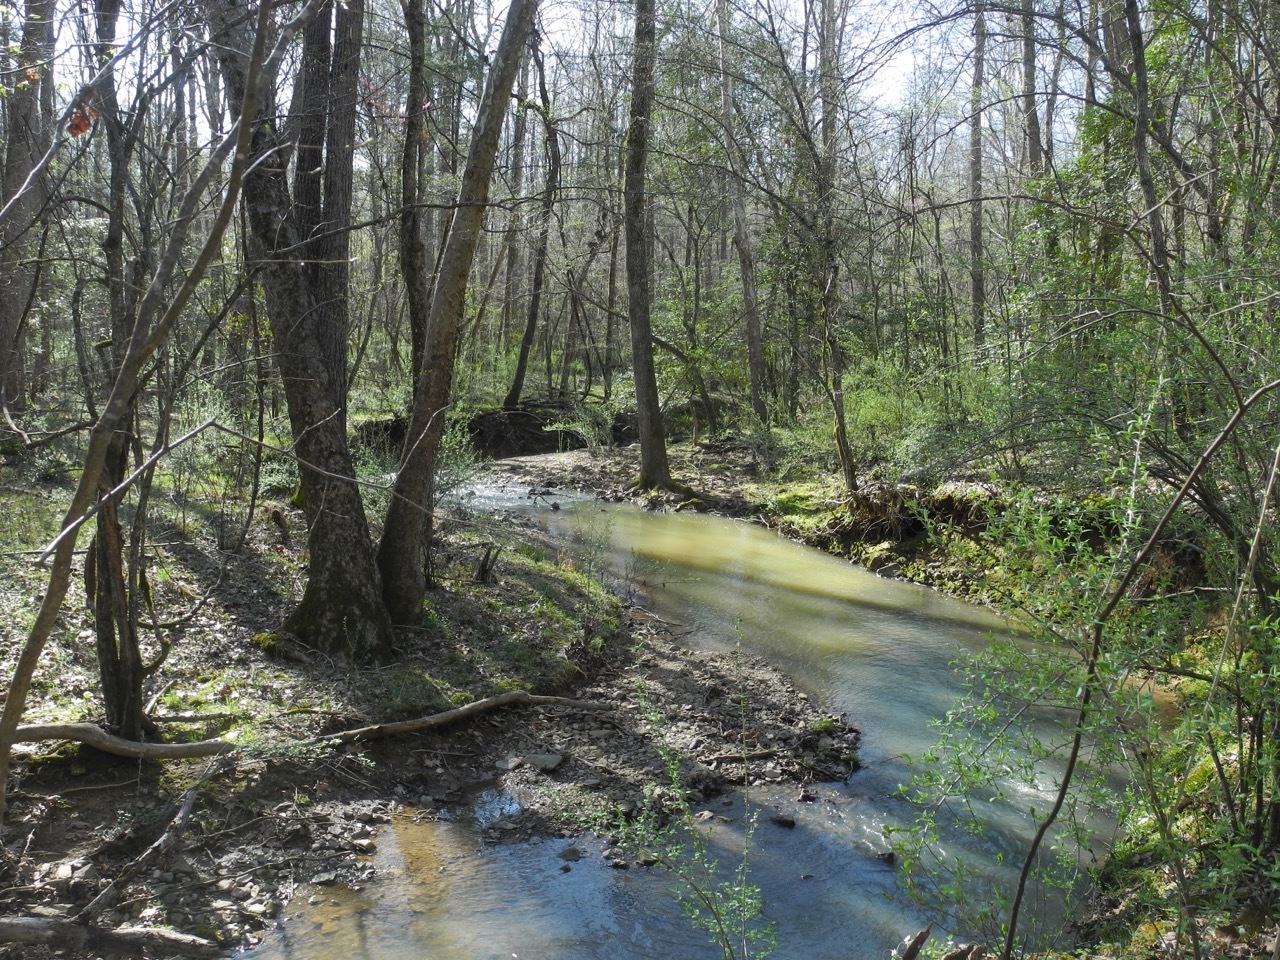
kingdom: Plantae
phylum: Tracheophyta
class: Magnoliopsida
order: Proteales
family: Platanaceae
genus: Platanus
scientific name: Platanus occidentalis
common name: American sycamore
